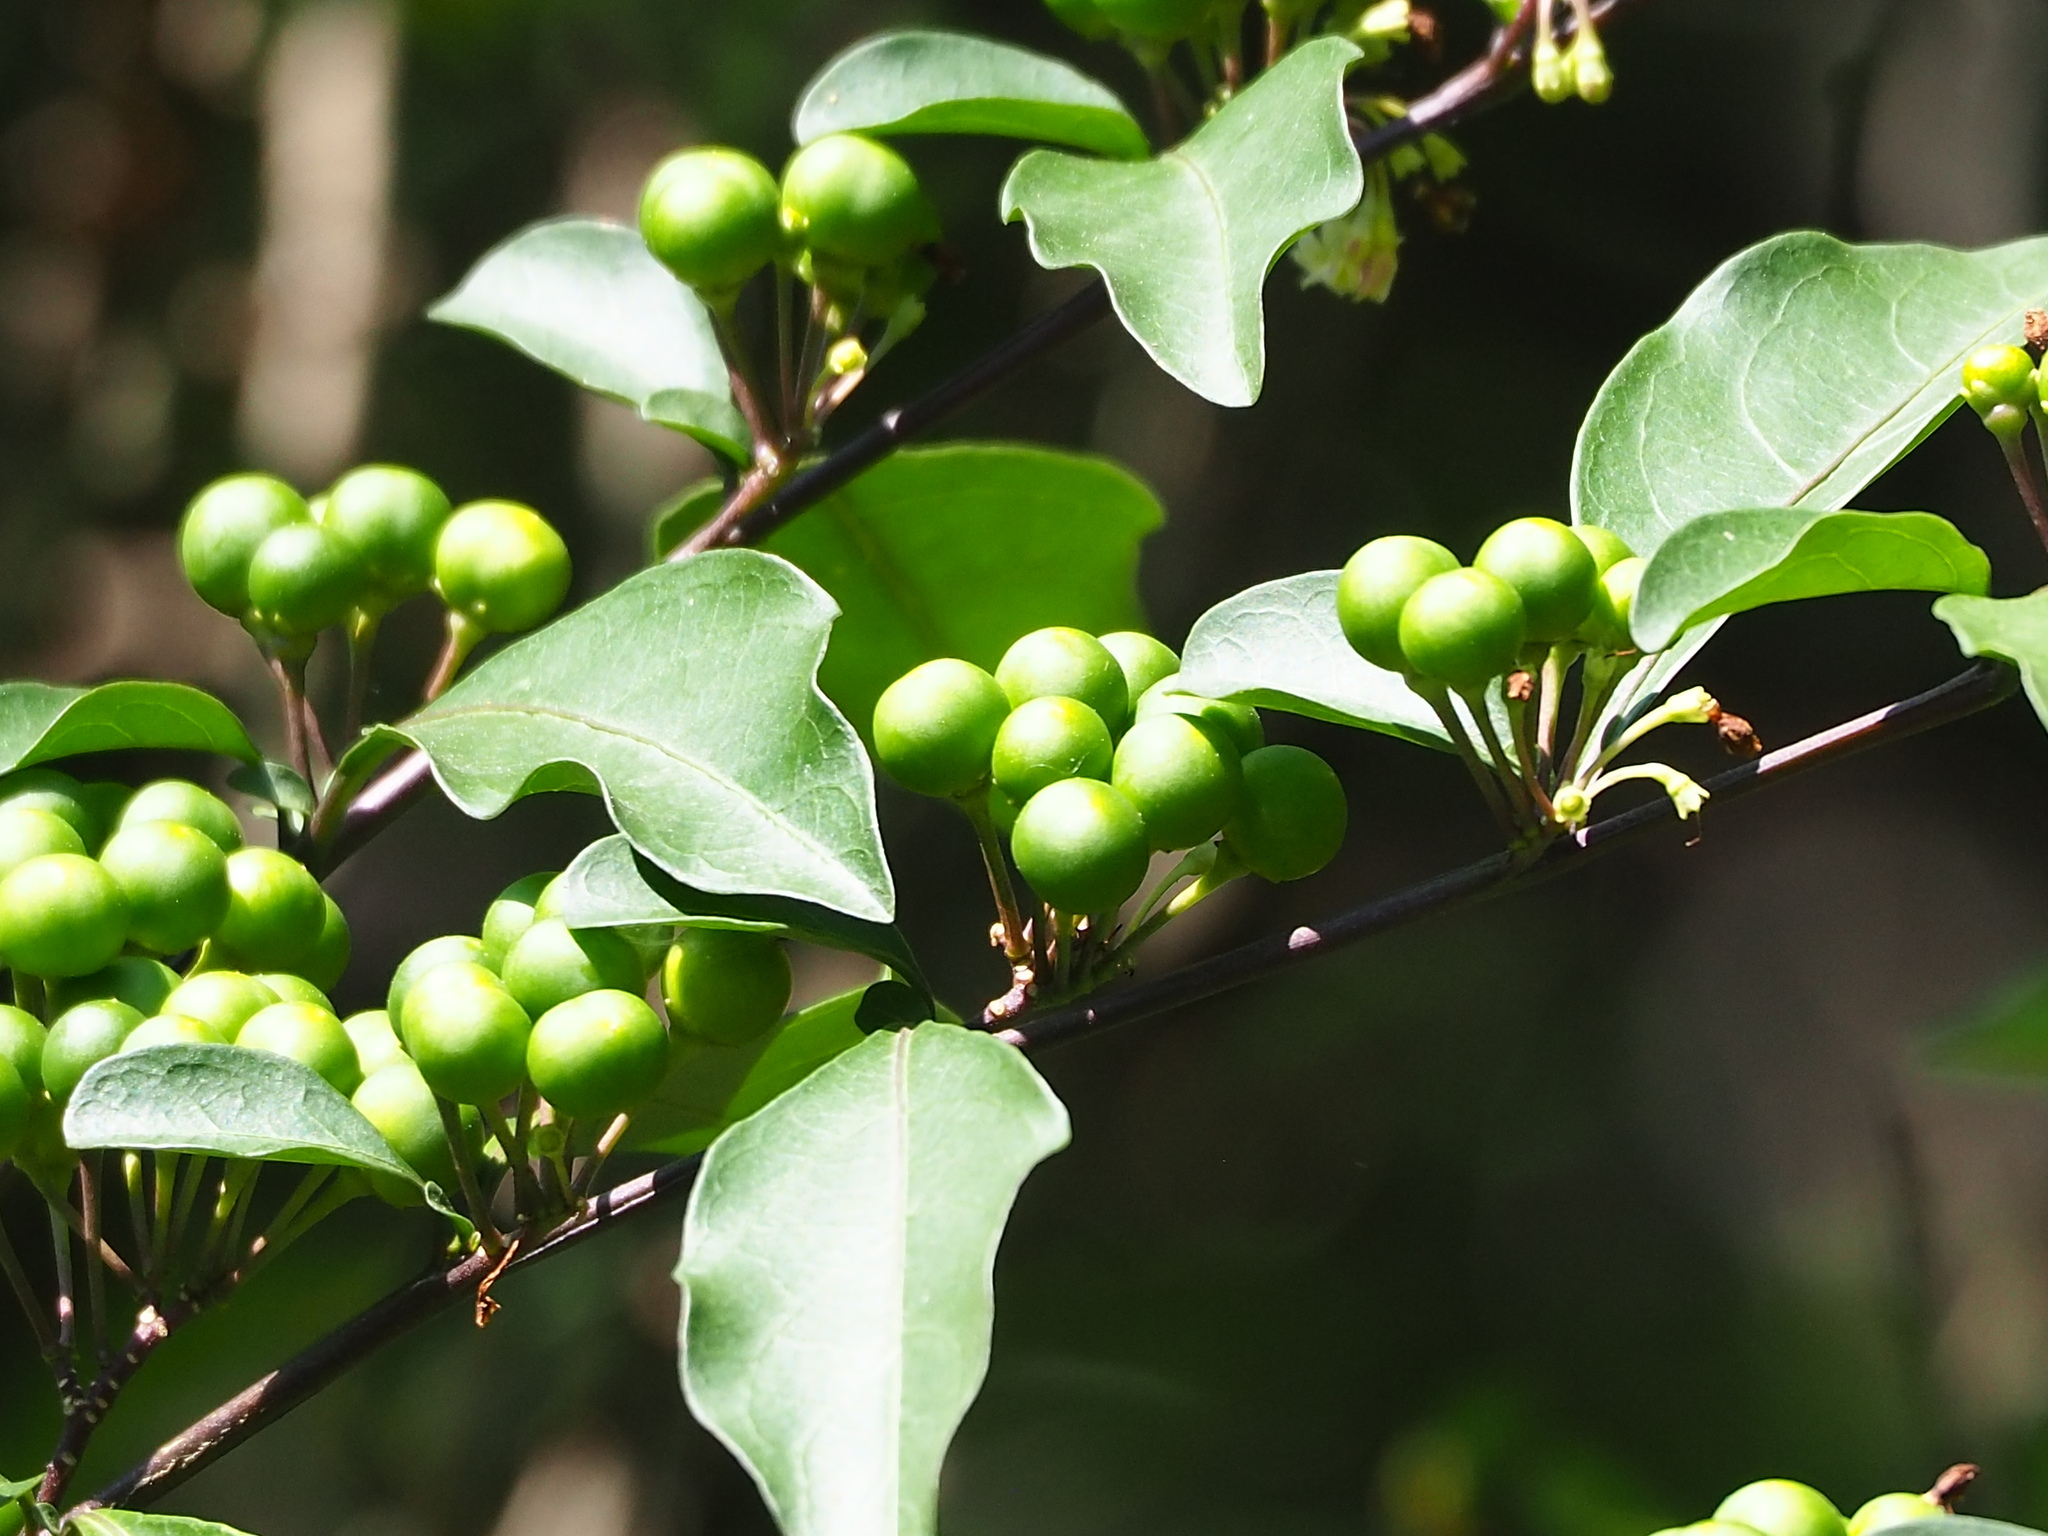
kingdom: Plantae
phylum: Tracheophyta
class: Magnoliopsida
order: Solanales
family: Solanaceae
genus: Solanum
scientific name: Solanum diphyllum
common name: Twoleaf nightshade
